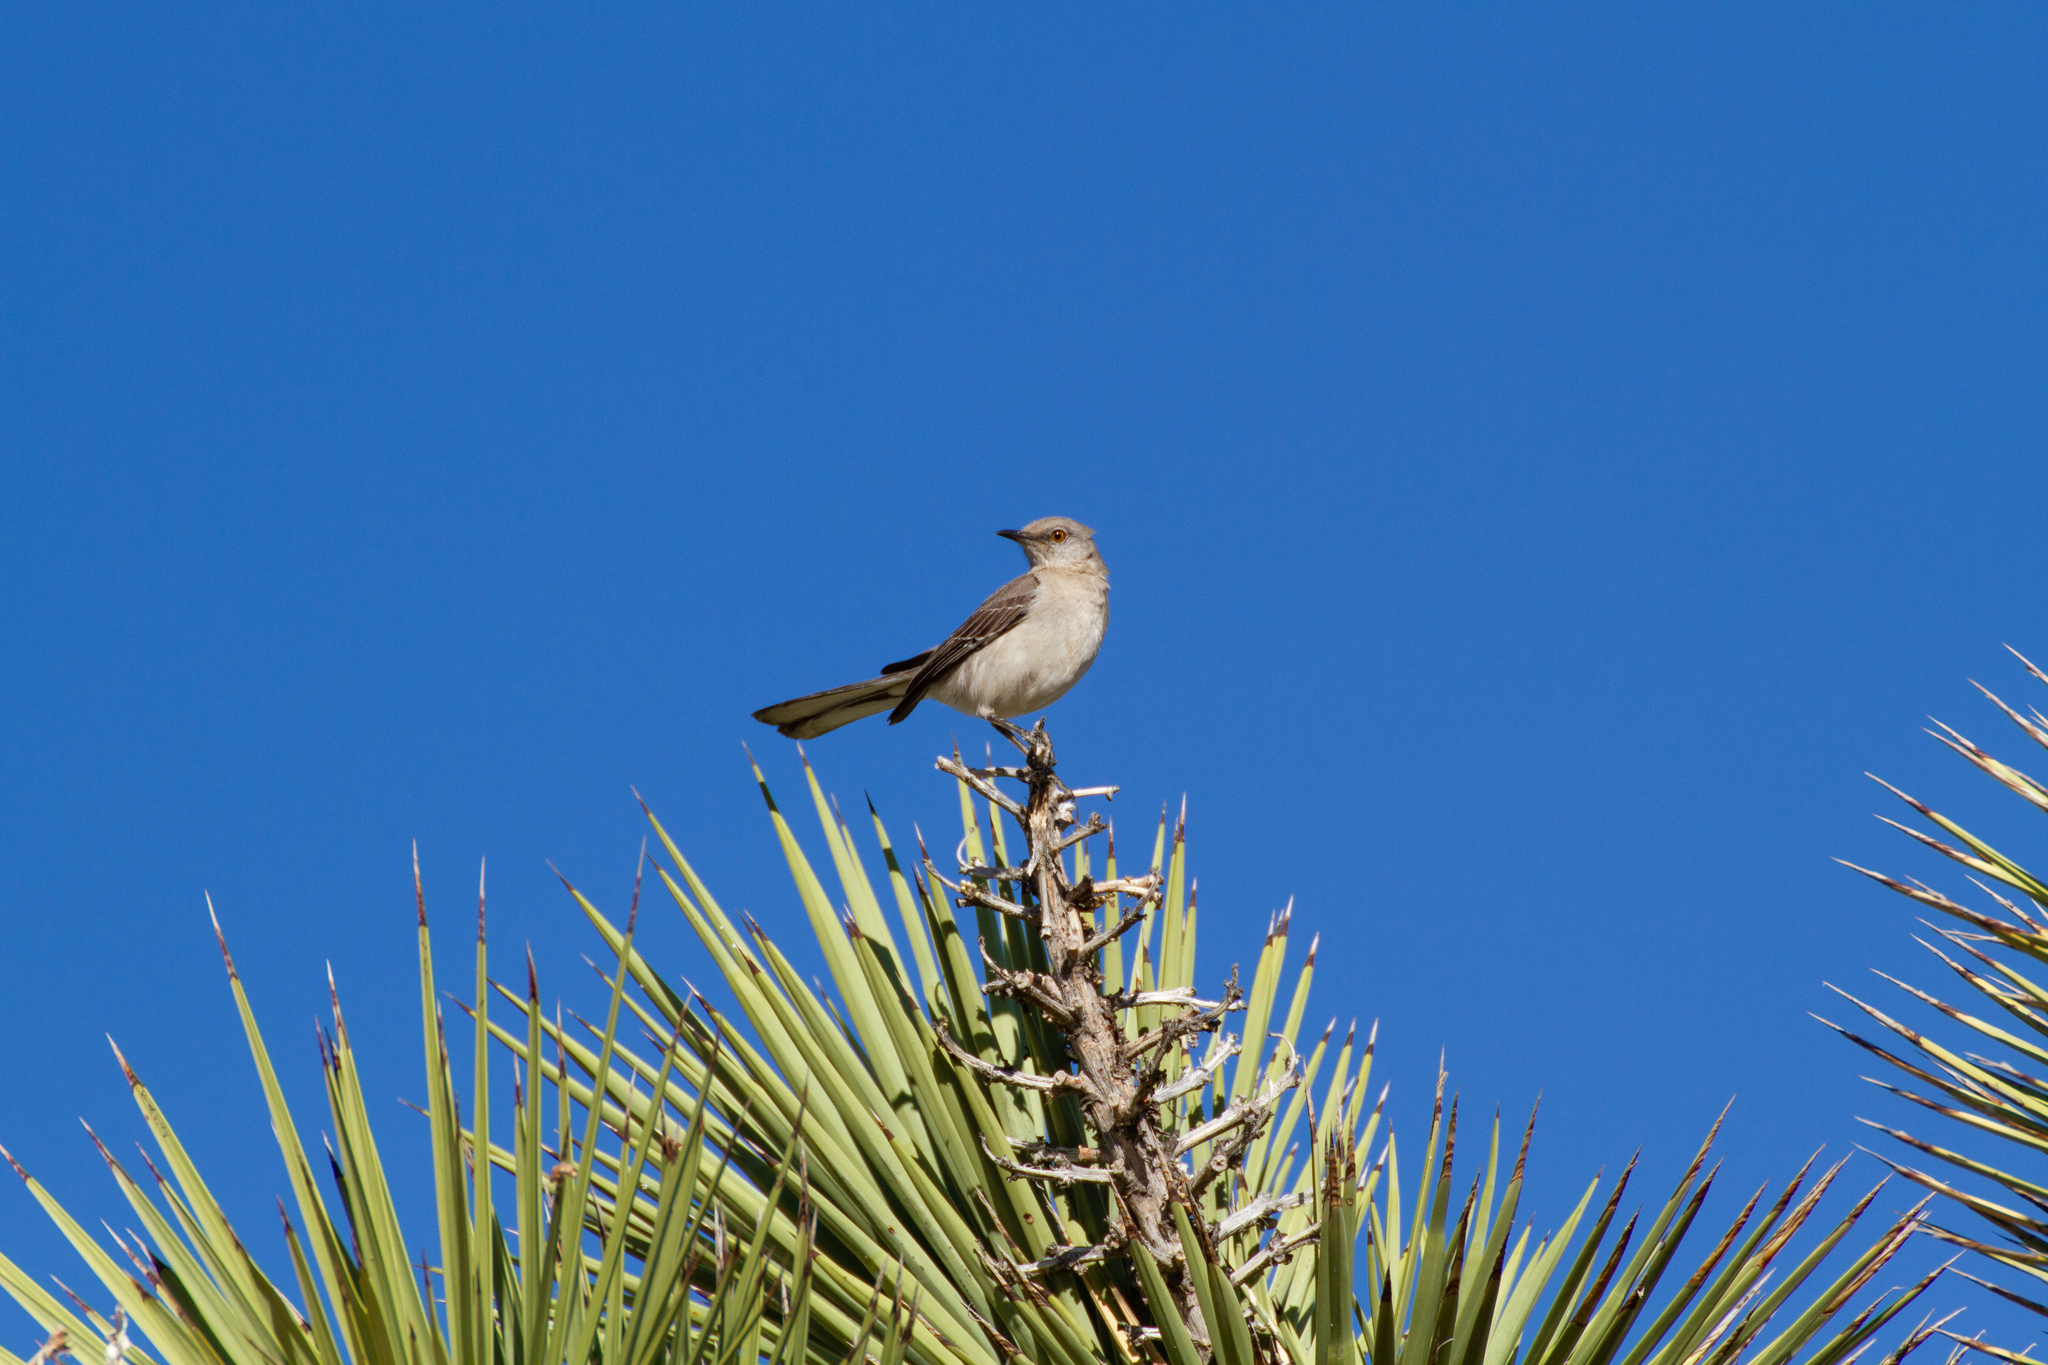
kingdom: Animalia
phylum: Chordata
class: Aves
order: Passeriformes
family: Mimidae
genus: Mimus
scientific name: Mimus polyglottos
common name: Northern mockingbird
